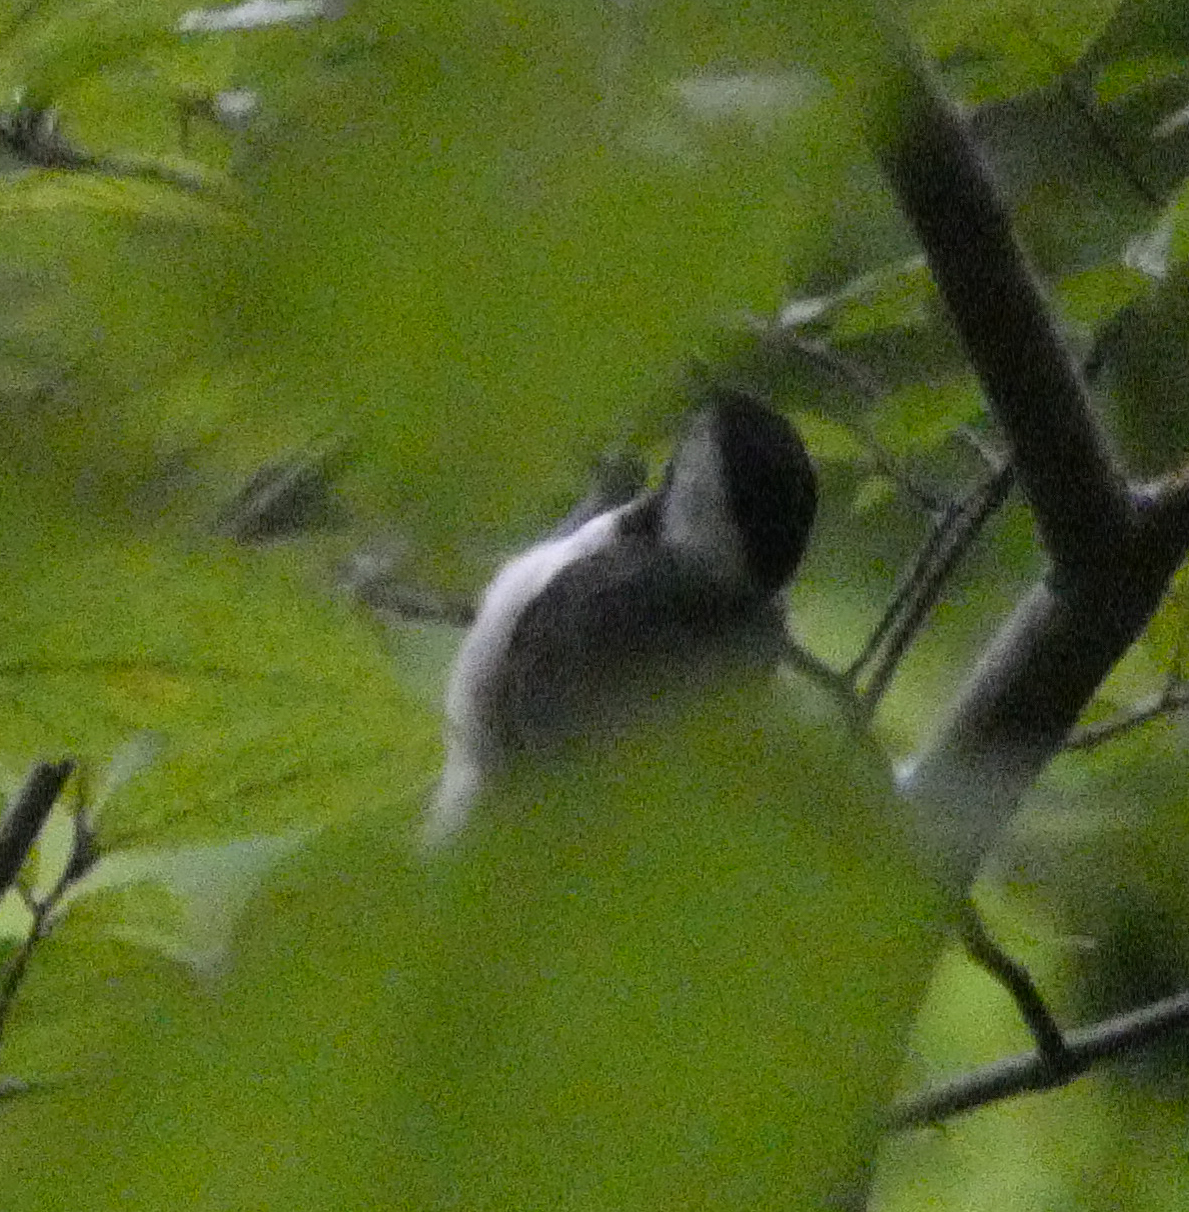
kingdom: Animalia
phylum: Chordata
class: Aves
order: Passeriformes
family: Paridae
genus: Poecile
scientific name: Poecile carolinensis
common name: Carolina chickadee
